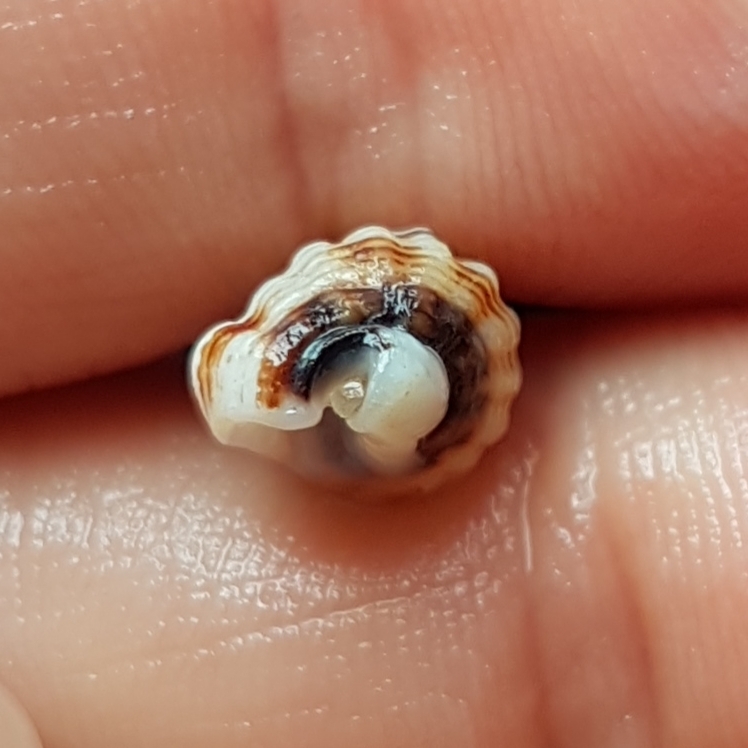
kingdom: Animalia
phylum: Mollusca
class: Gastropoda
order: Neogastropoda
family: Nassariidae
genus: Tritia
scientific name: Tritia incrassata
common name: Thick-lipped dog whelk
